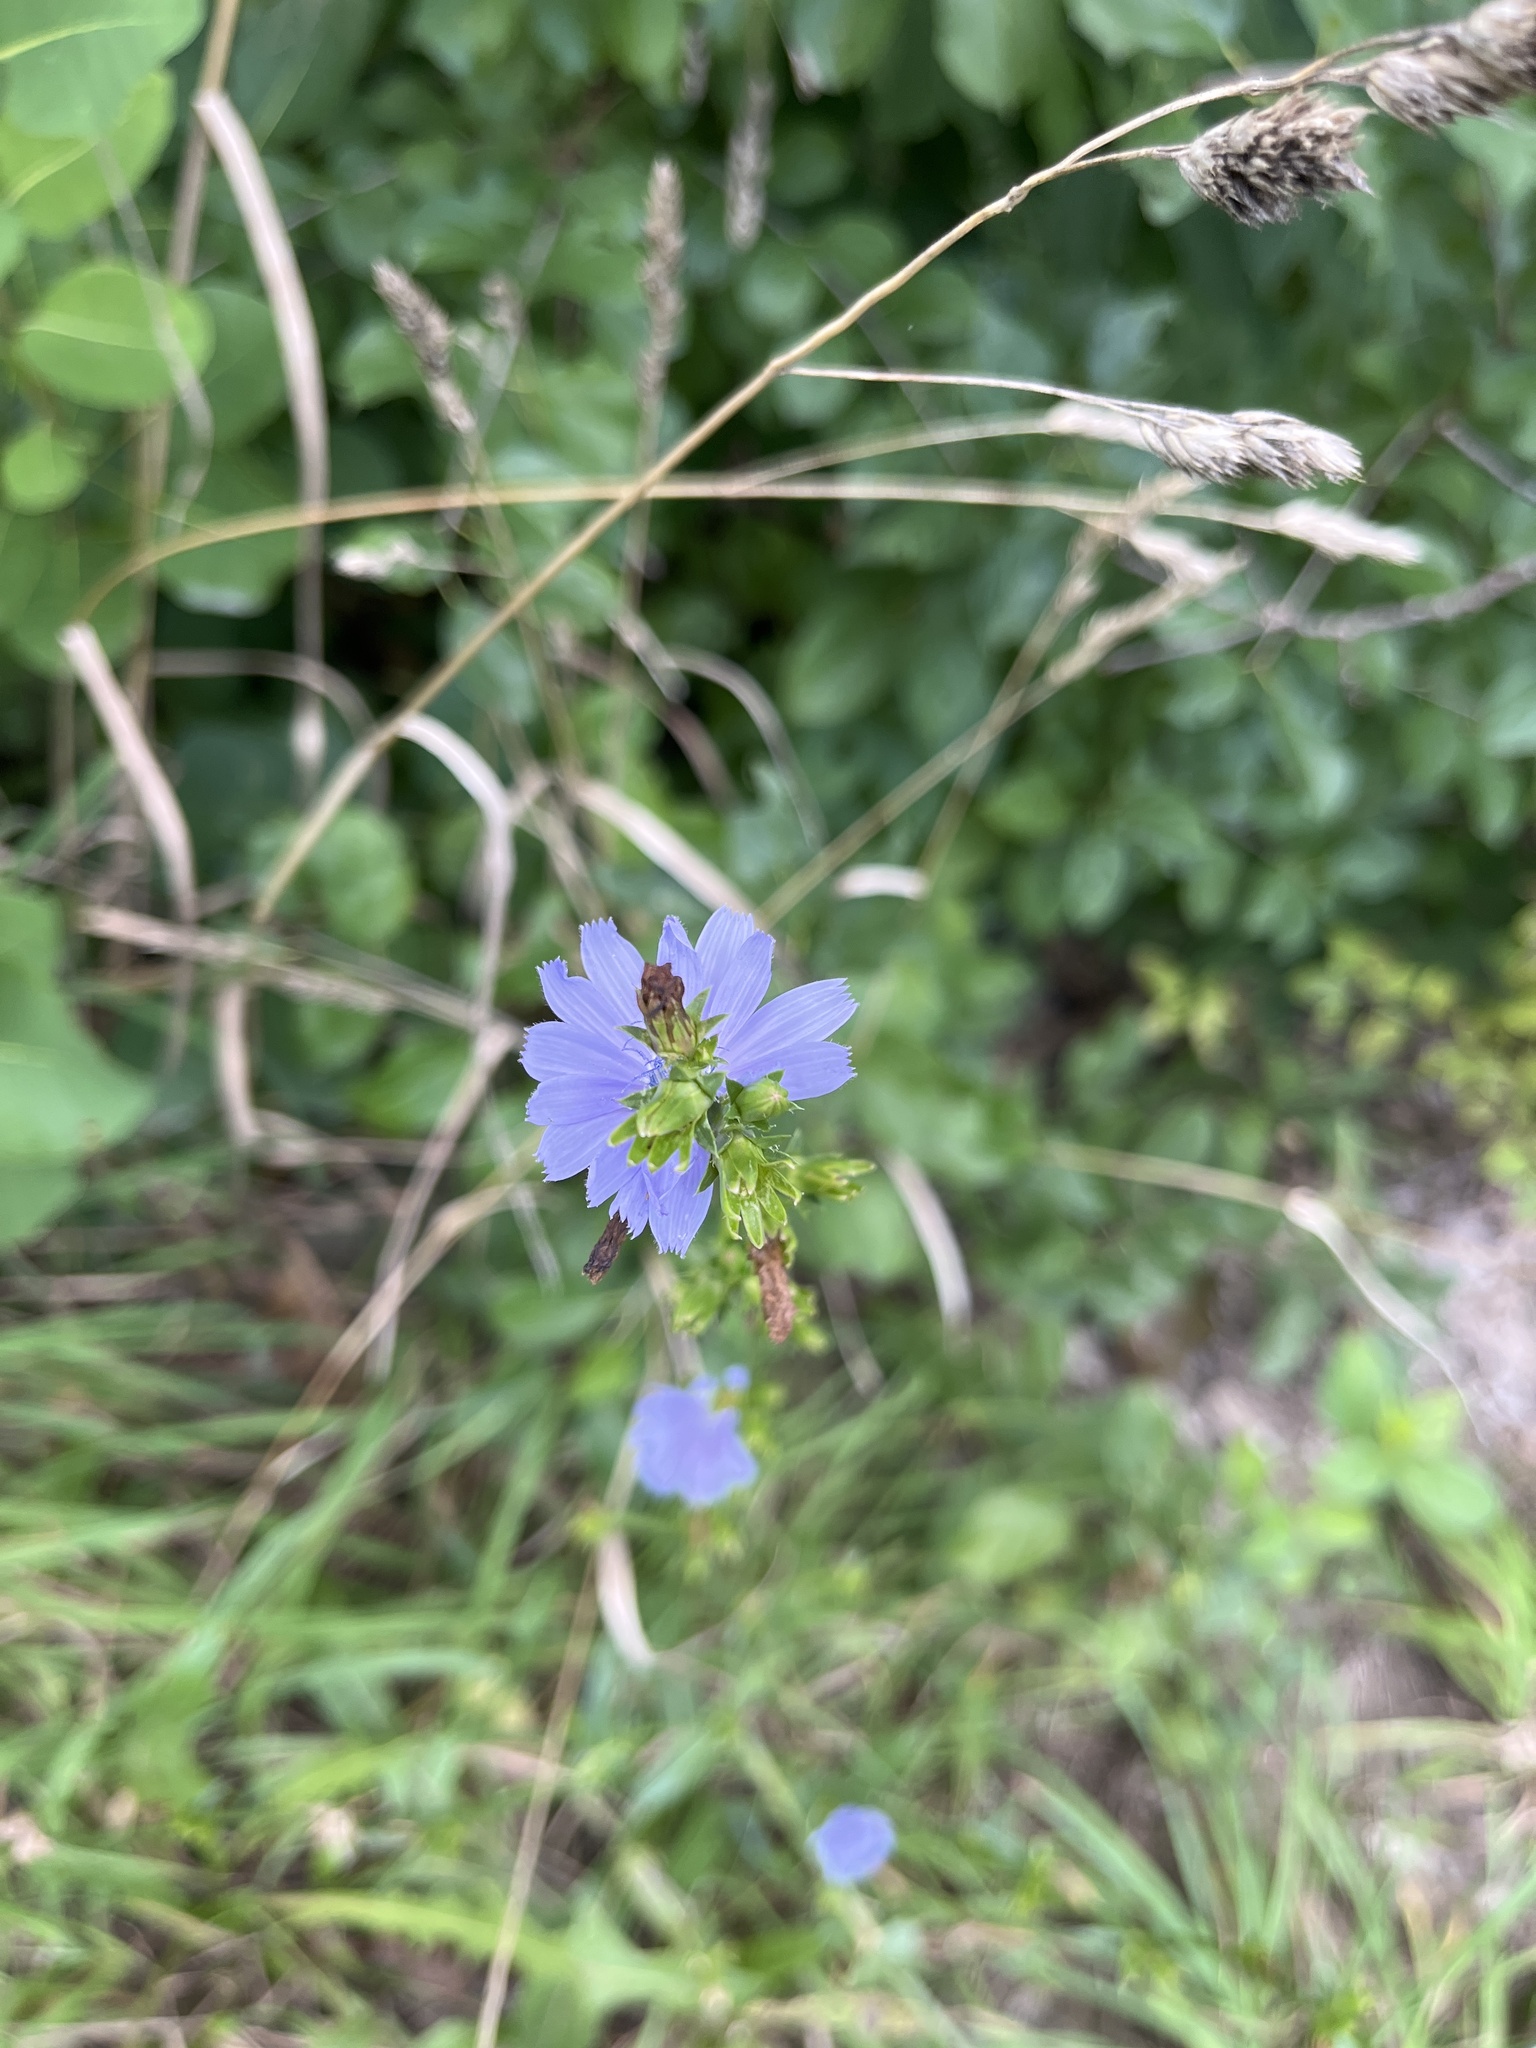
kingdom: Plantae
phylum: Tracheophyta
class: Magnoliopsida
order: Asterales
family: Asteraceae
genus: Cichorium
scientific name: Cichorium intybus
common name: Chicory
